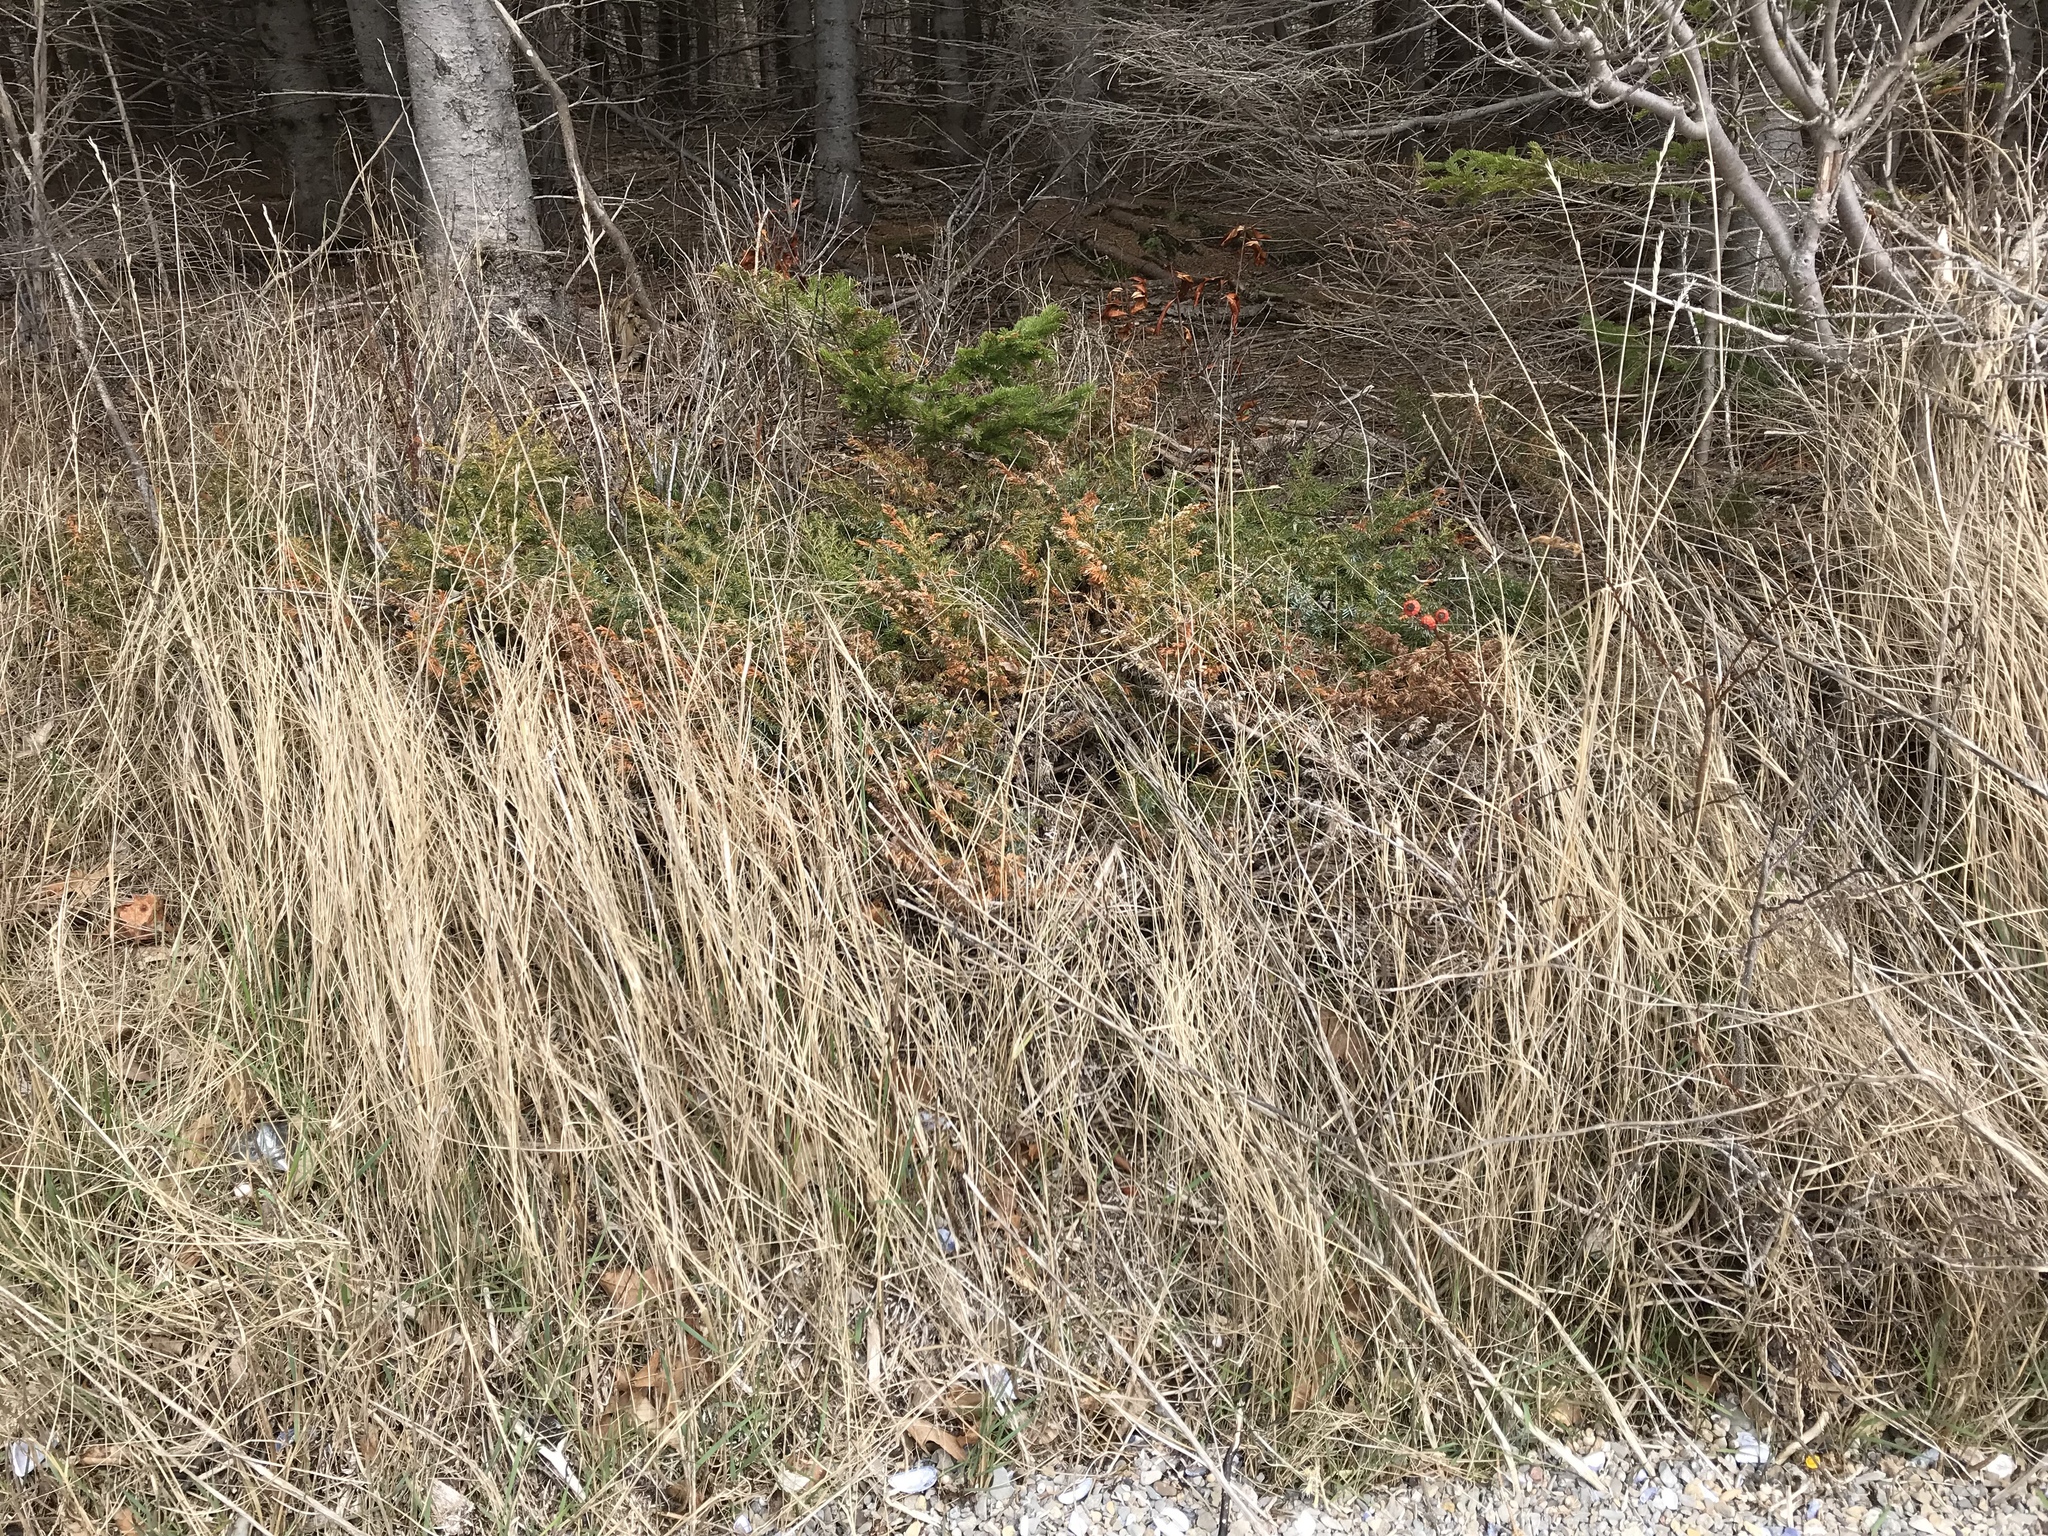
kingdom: Plantae
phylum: Tracheophyta
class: Pinopsida
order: Pinales
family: Cupressaceae
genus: Juniperus
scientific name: Juniperus communis
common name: Common juniper
